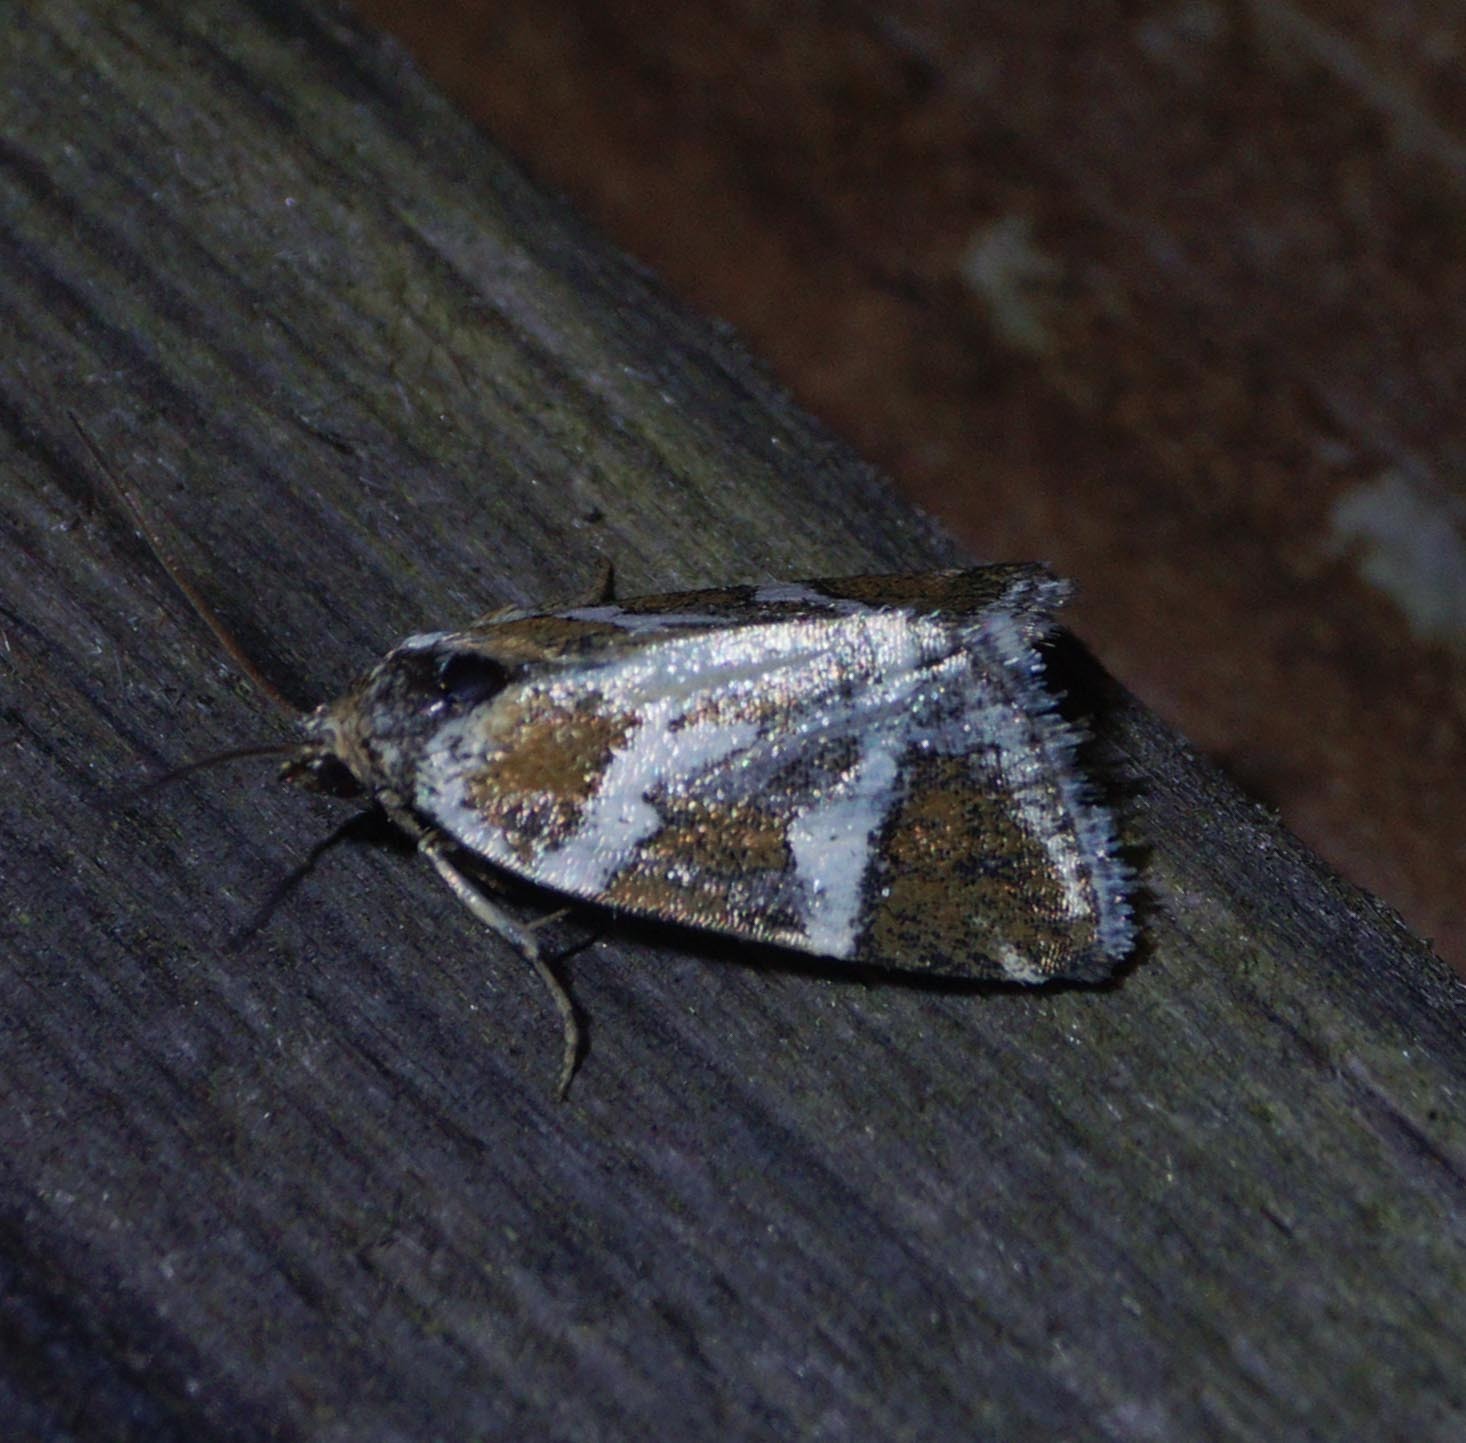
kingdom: Animalia
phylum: Arthropoda
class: Insecta
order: Lepidoptera
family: Noctuidae
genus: Deltote
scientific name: Deltote bankiana
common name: Silver barred
